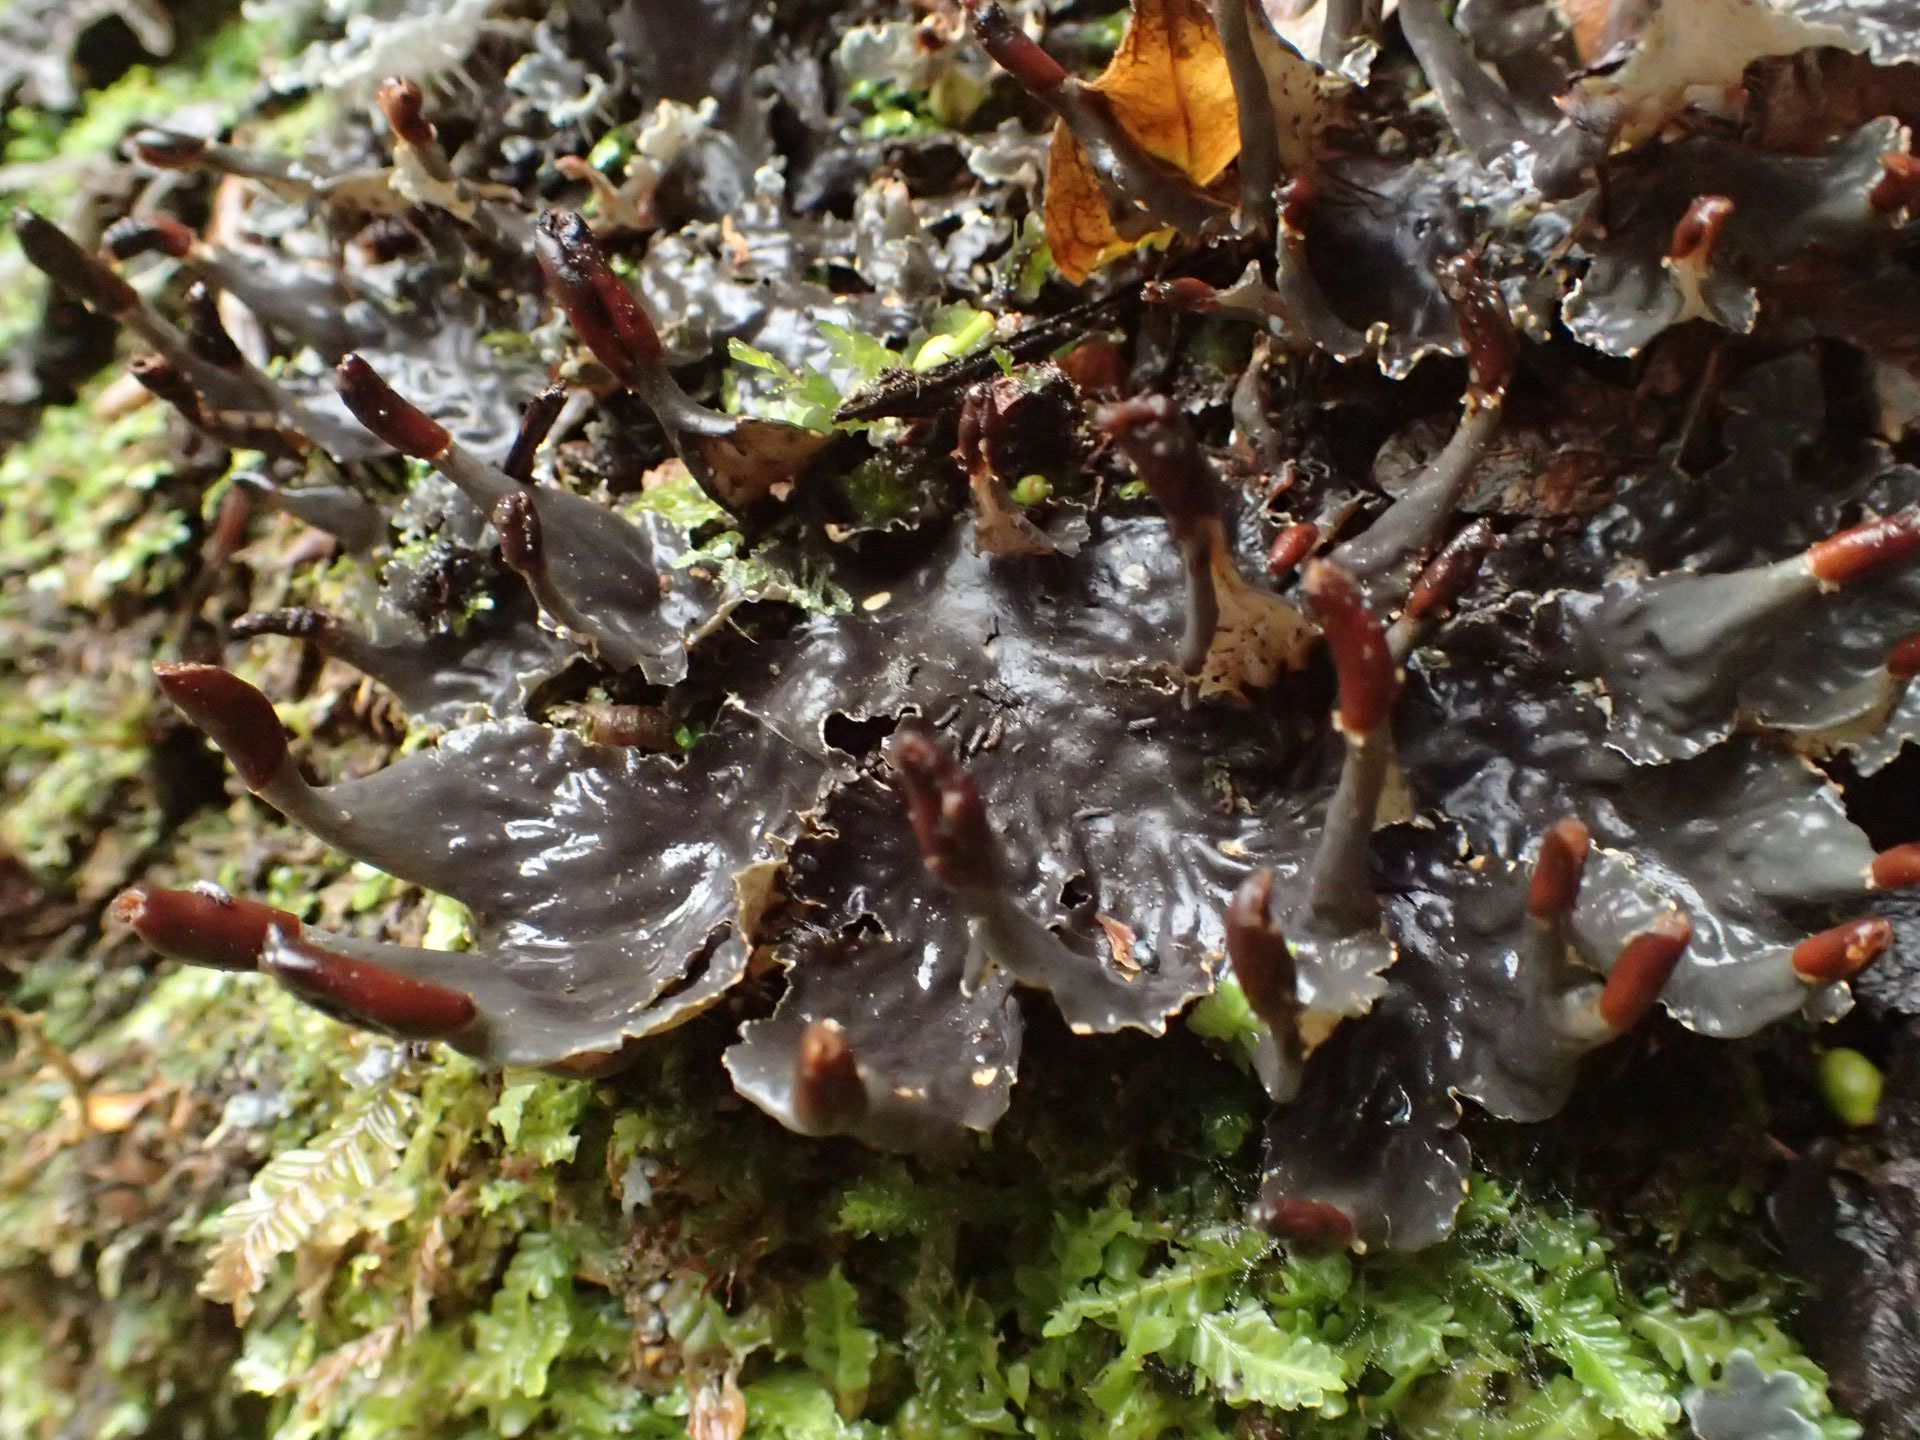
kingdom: Fungi
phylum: Ascomycota
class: Lecanoromycetes
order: Peltigerales
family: Peltigeraceae
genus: Peltigera
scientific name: Peltigera dolichorhiza
